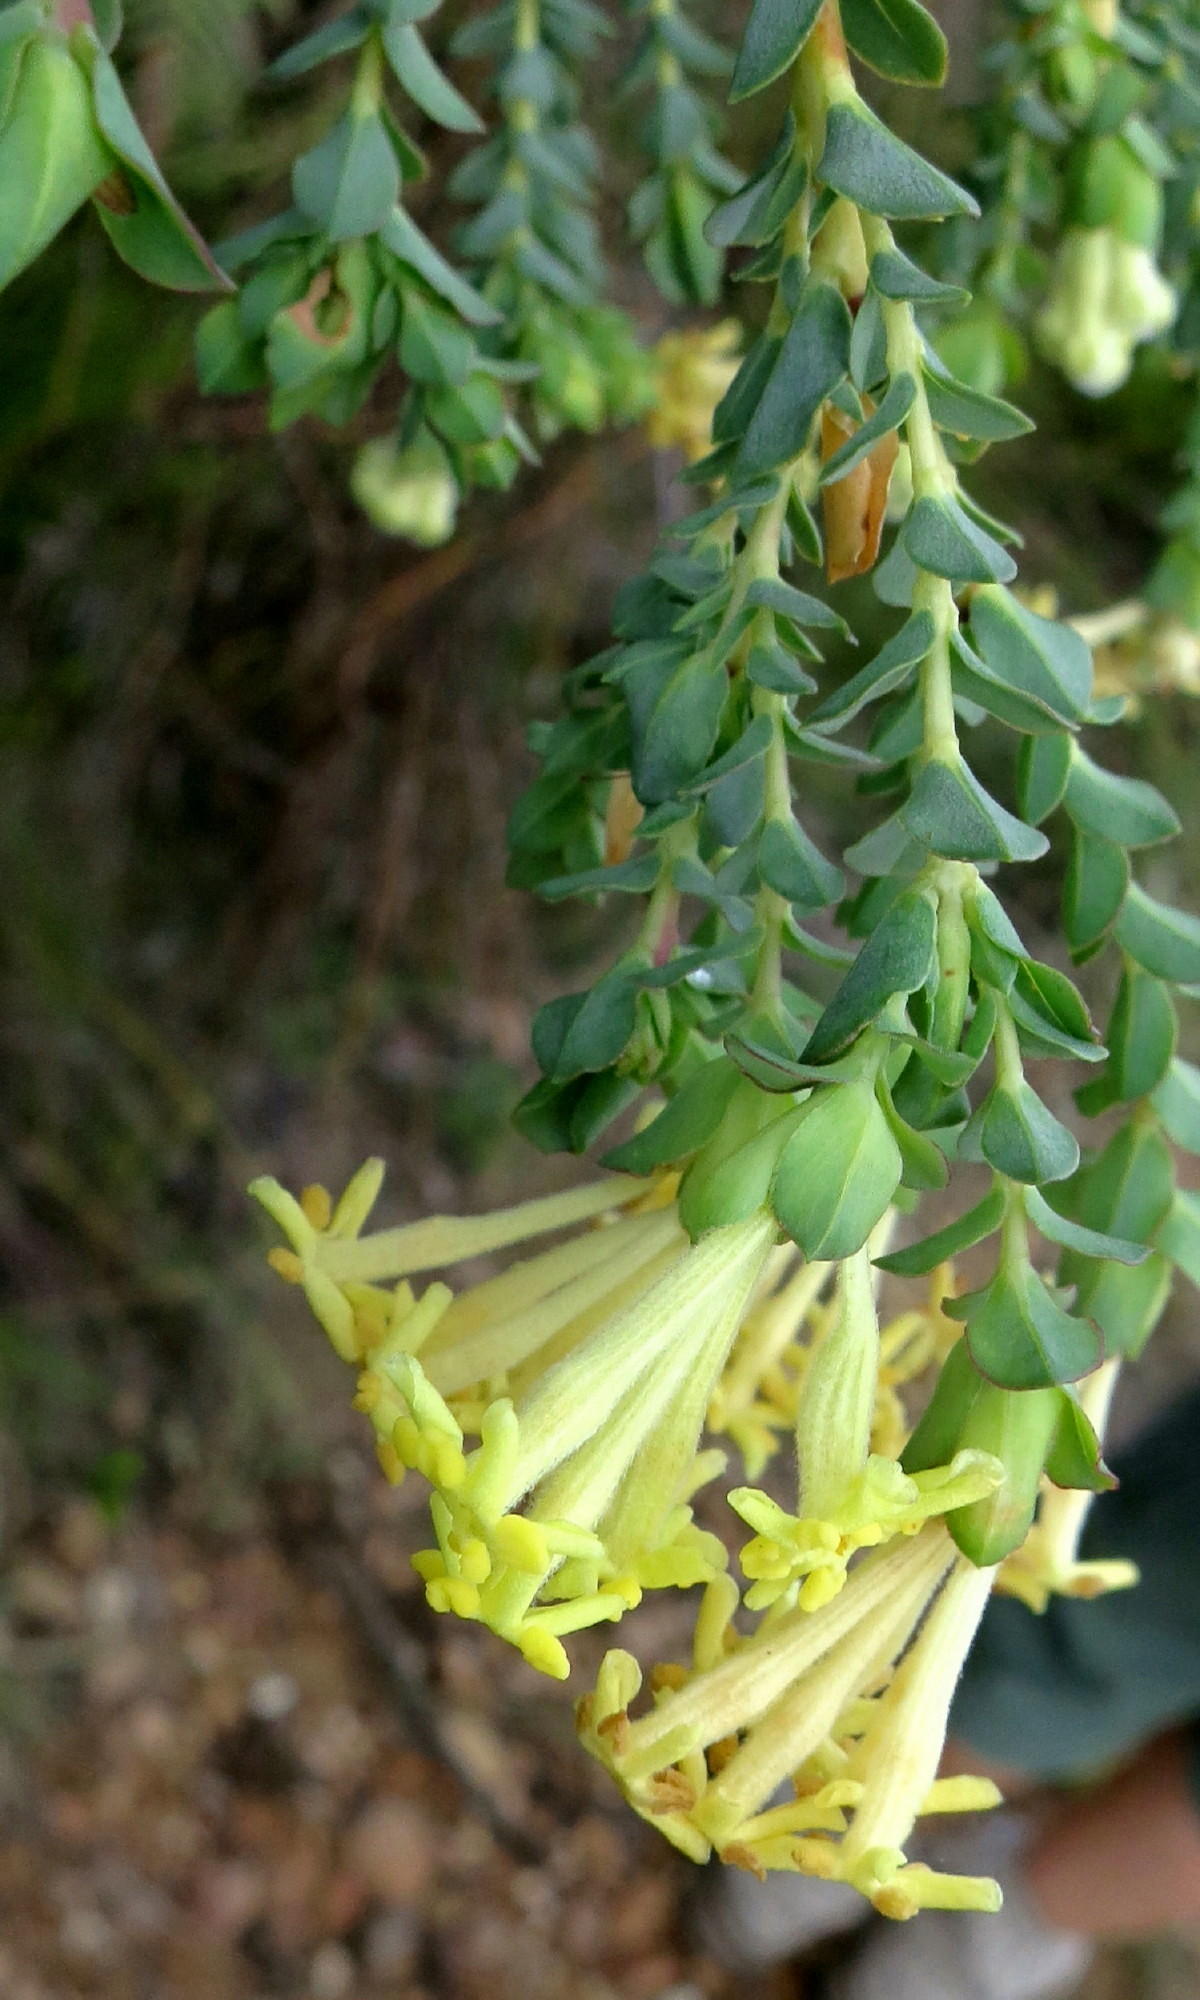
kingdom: Plantae
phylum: Tracheophyta
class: Magnoliopsida
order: Malvales
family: Thymelaeaceae
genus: Gnidia
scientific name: Gnidia oppositifolia
